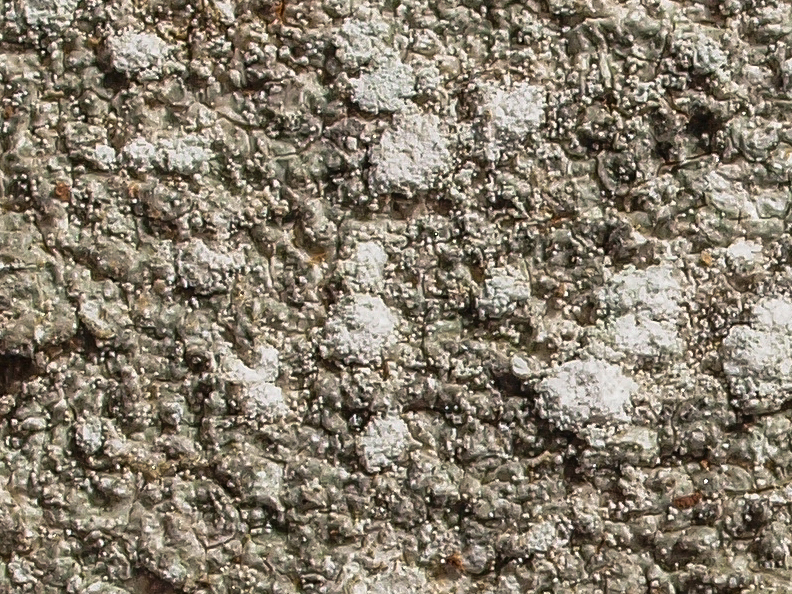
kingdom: Fungi
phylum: Ascomycota
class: Lecanoromycetes
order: Pertusariales
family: Pertusariaceae
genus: Lepra
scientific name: Lepra amara
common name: Bitter wart lichen
